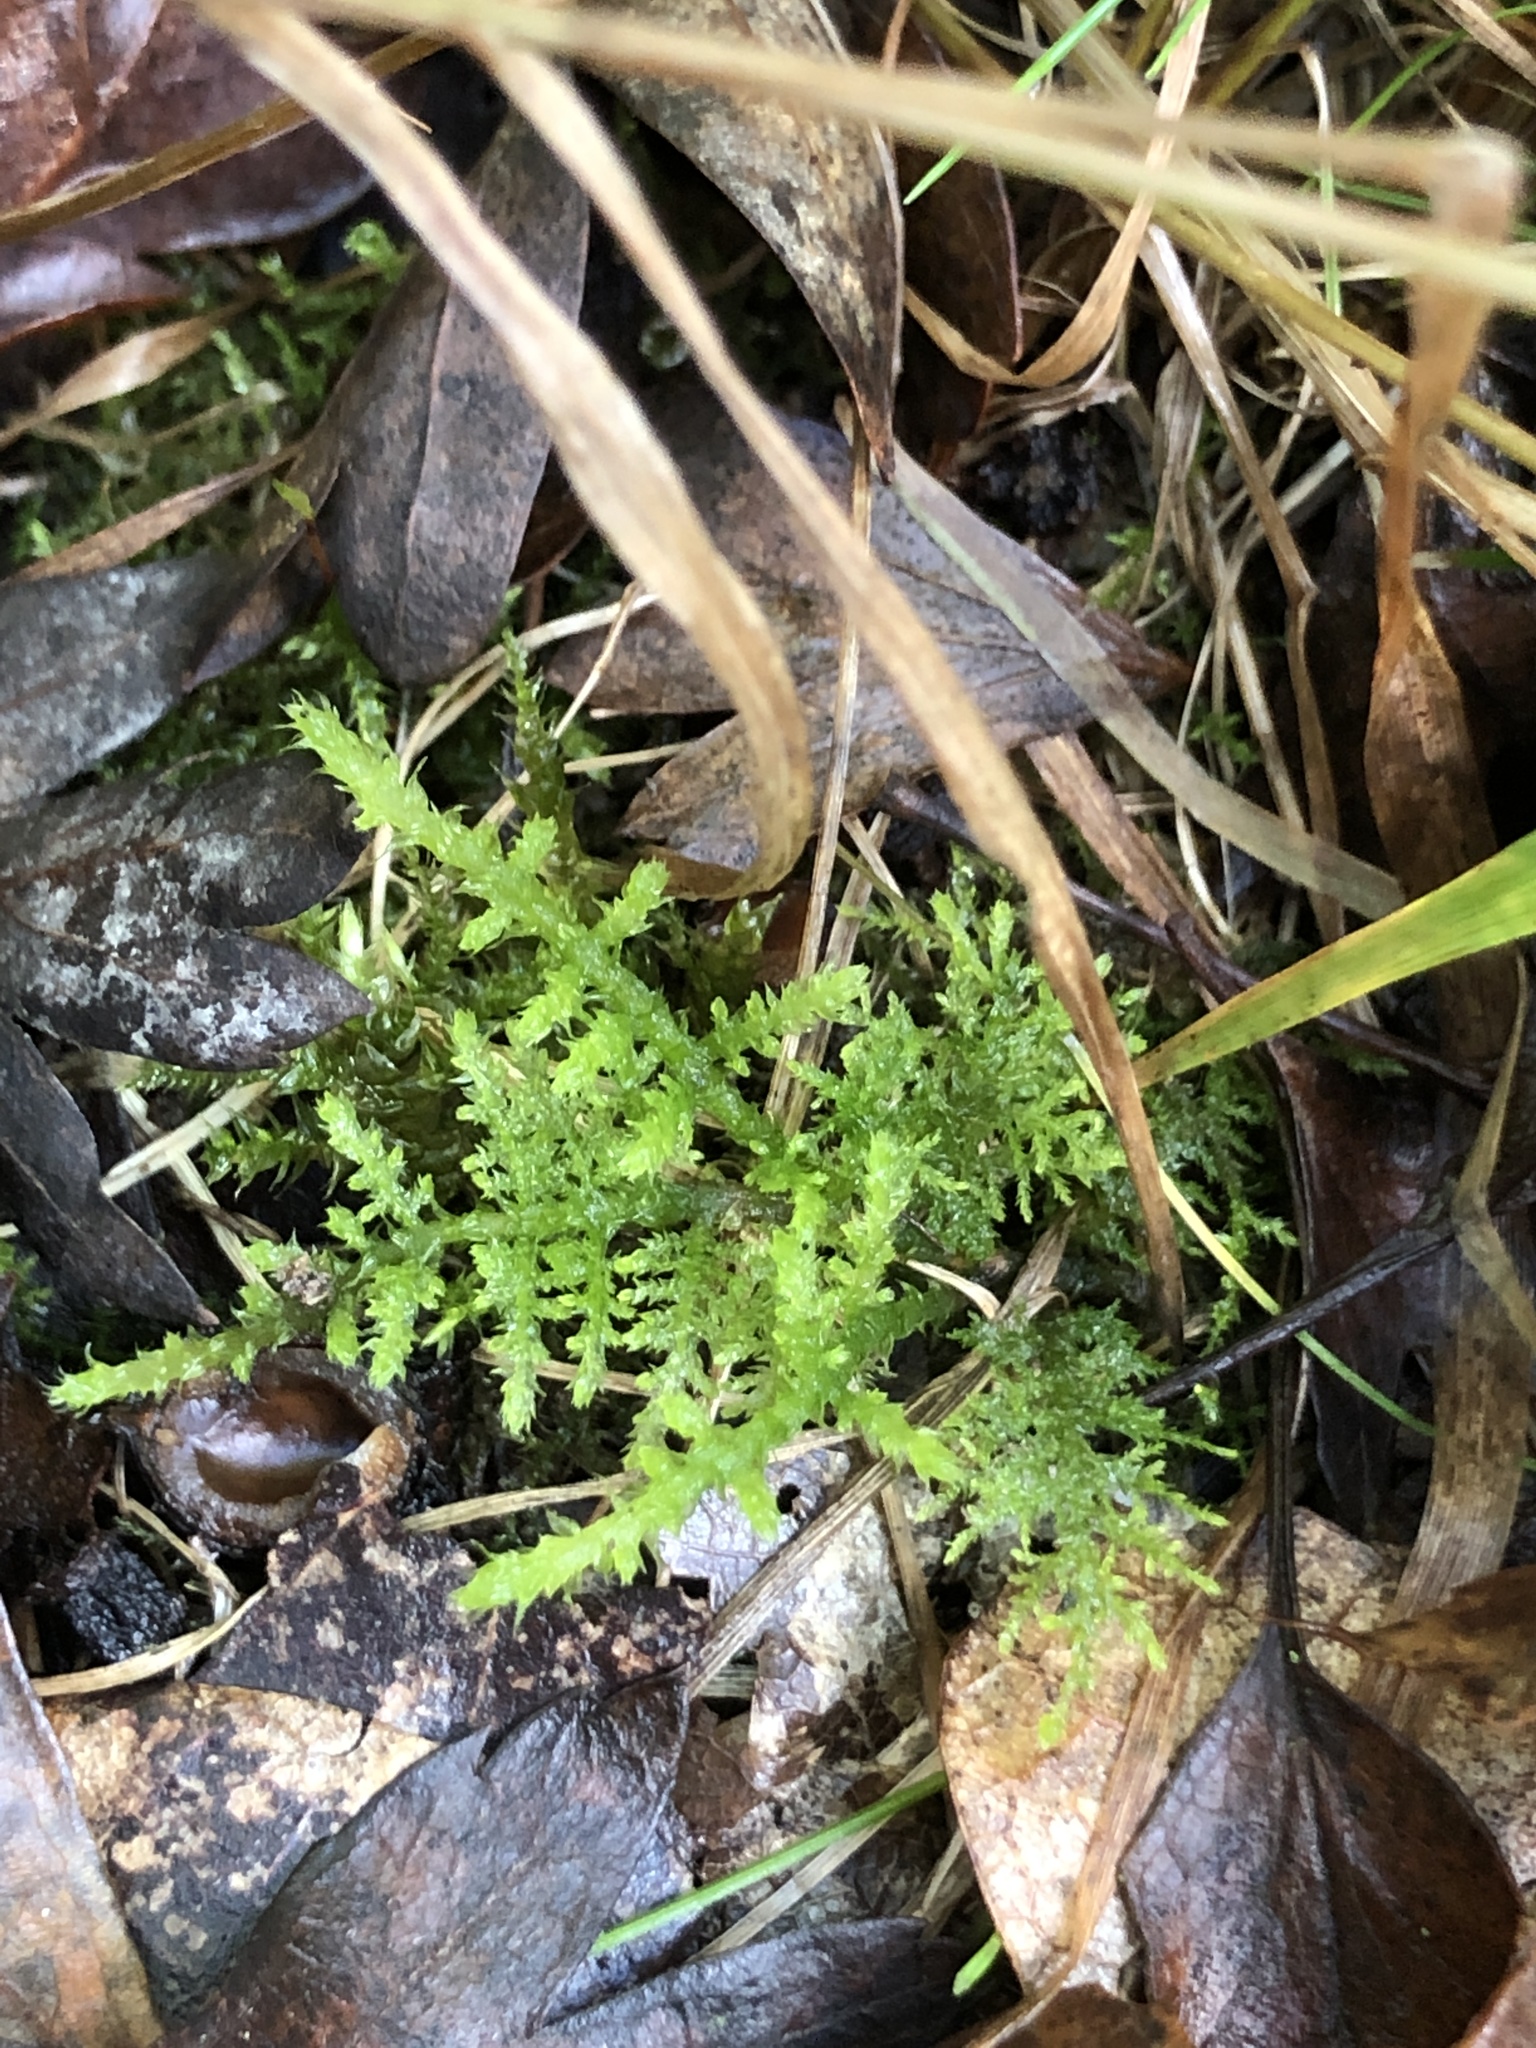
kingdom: Plantae
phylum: Bryophyta
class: Bryopsida
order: Hypnales
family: Thuidiaceae
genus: Thuidium
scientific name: Thuidium tamariscinum
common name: Common tamarisk-moss
